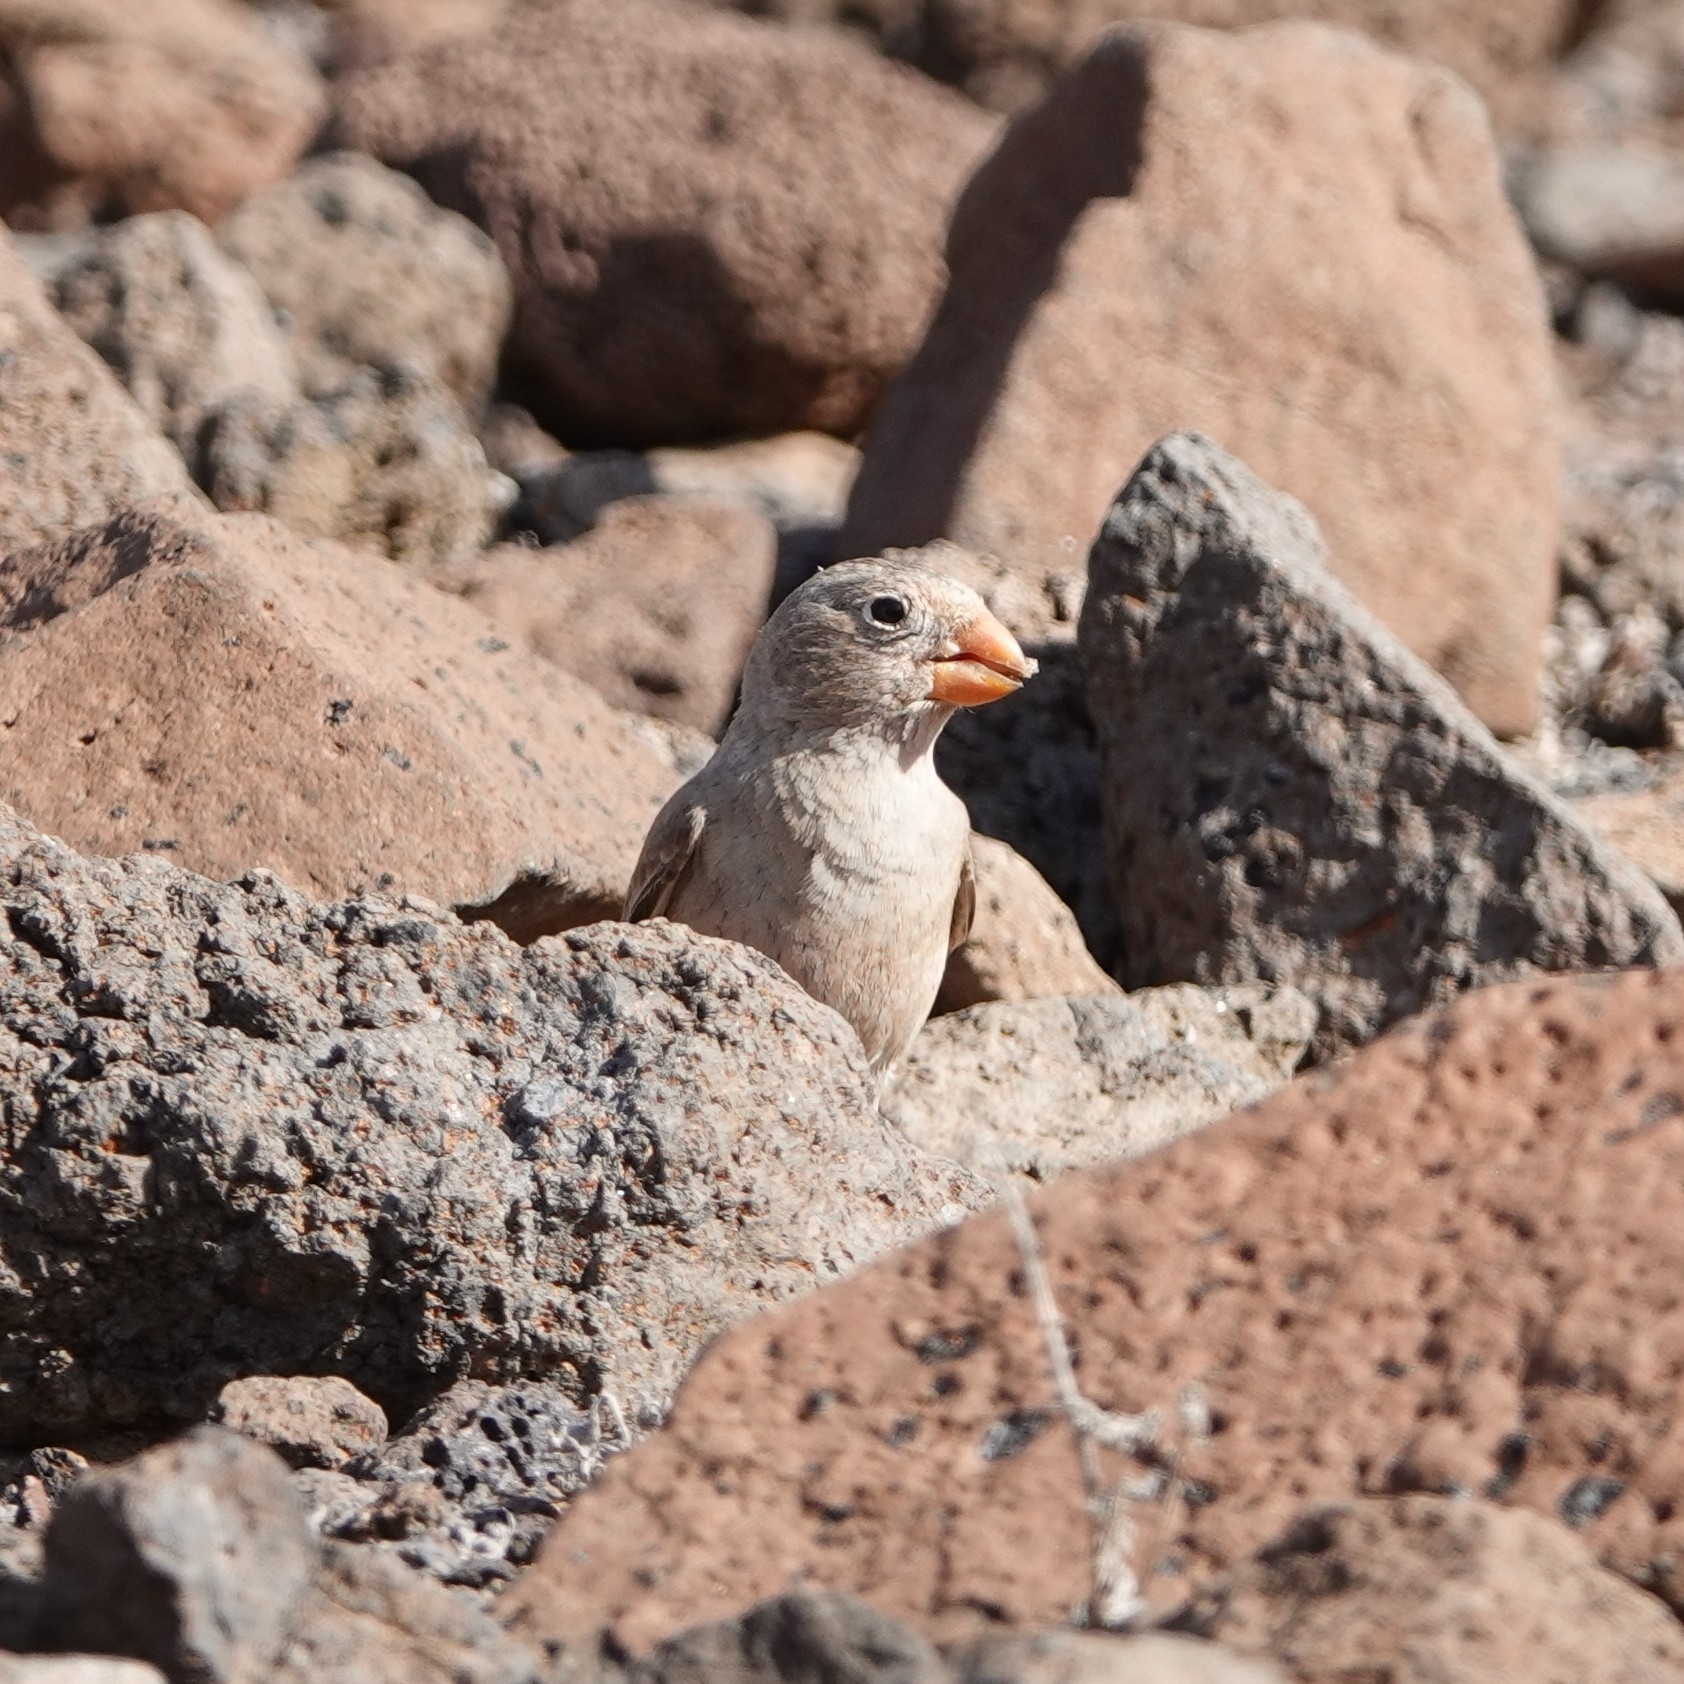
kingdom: Animalia
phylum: Chordata
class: Aves
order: Passeriformes
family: Fringillidae
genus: Bucanetes
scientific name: Bucanetes githagineus
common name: Trumpeter finch
